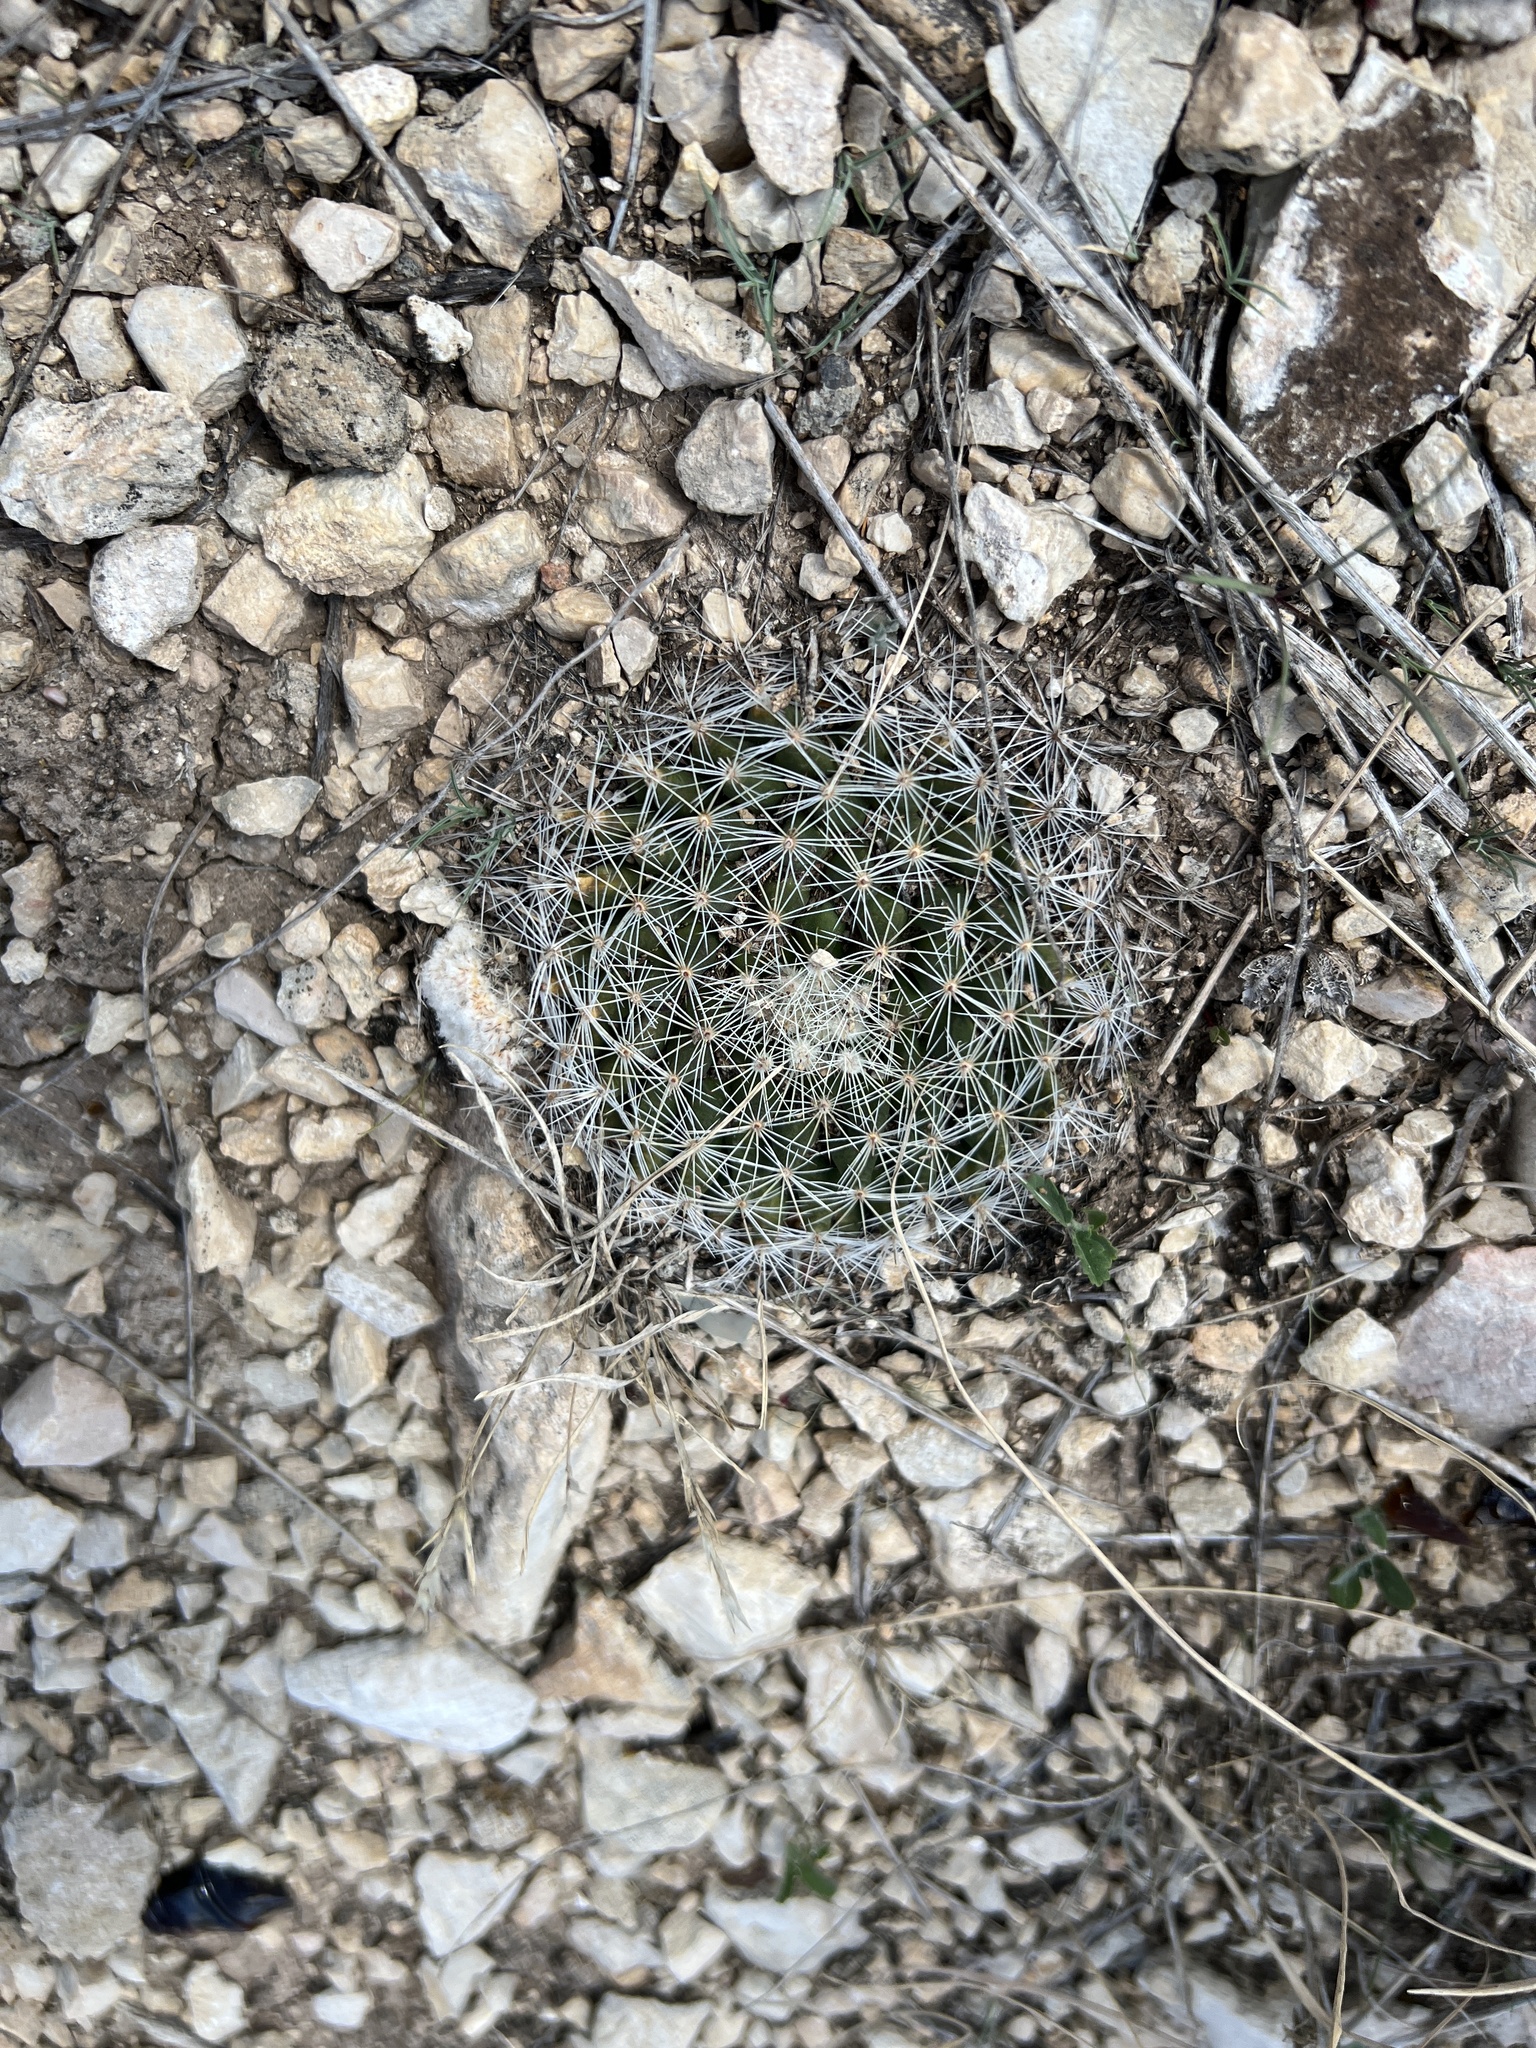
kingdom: Plantae
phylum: Tracheophyta
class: Magnoliopsida
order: Caryophyllales
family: Cactaceae
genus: Mammillaria
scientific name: Mammillaria heyderi
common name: Little nipple cactus
